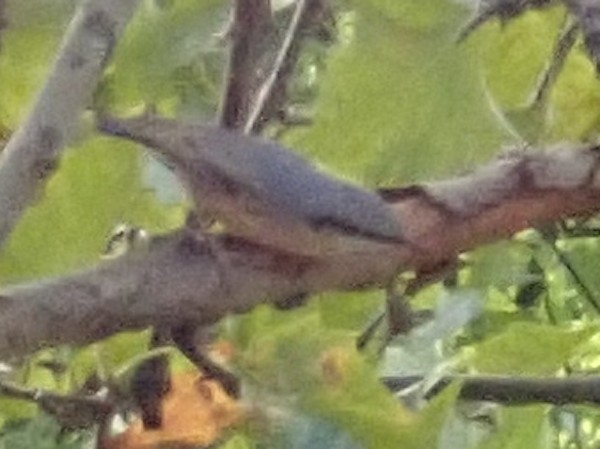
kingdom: Animalia
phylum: Chordata
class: Aves
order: Passeriformes
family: Sittidae
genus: Sitta
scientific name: Sitta europaea
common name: Eurasian nuthatch
